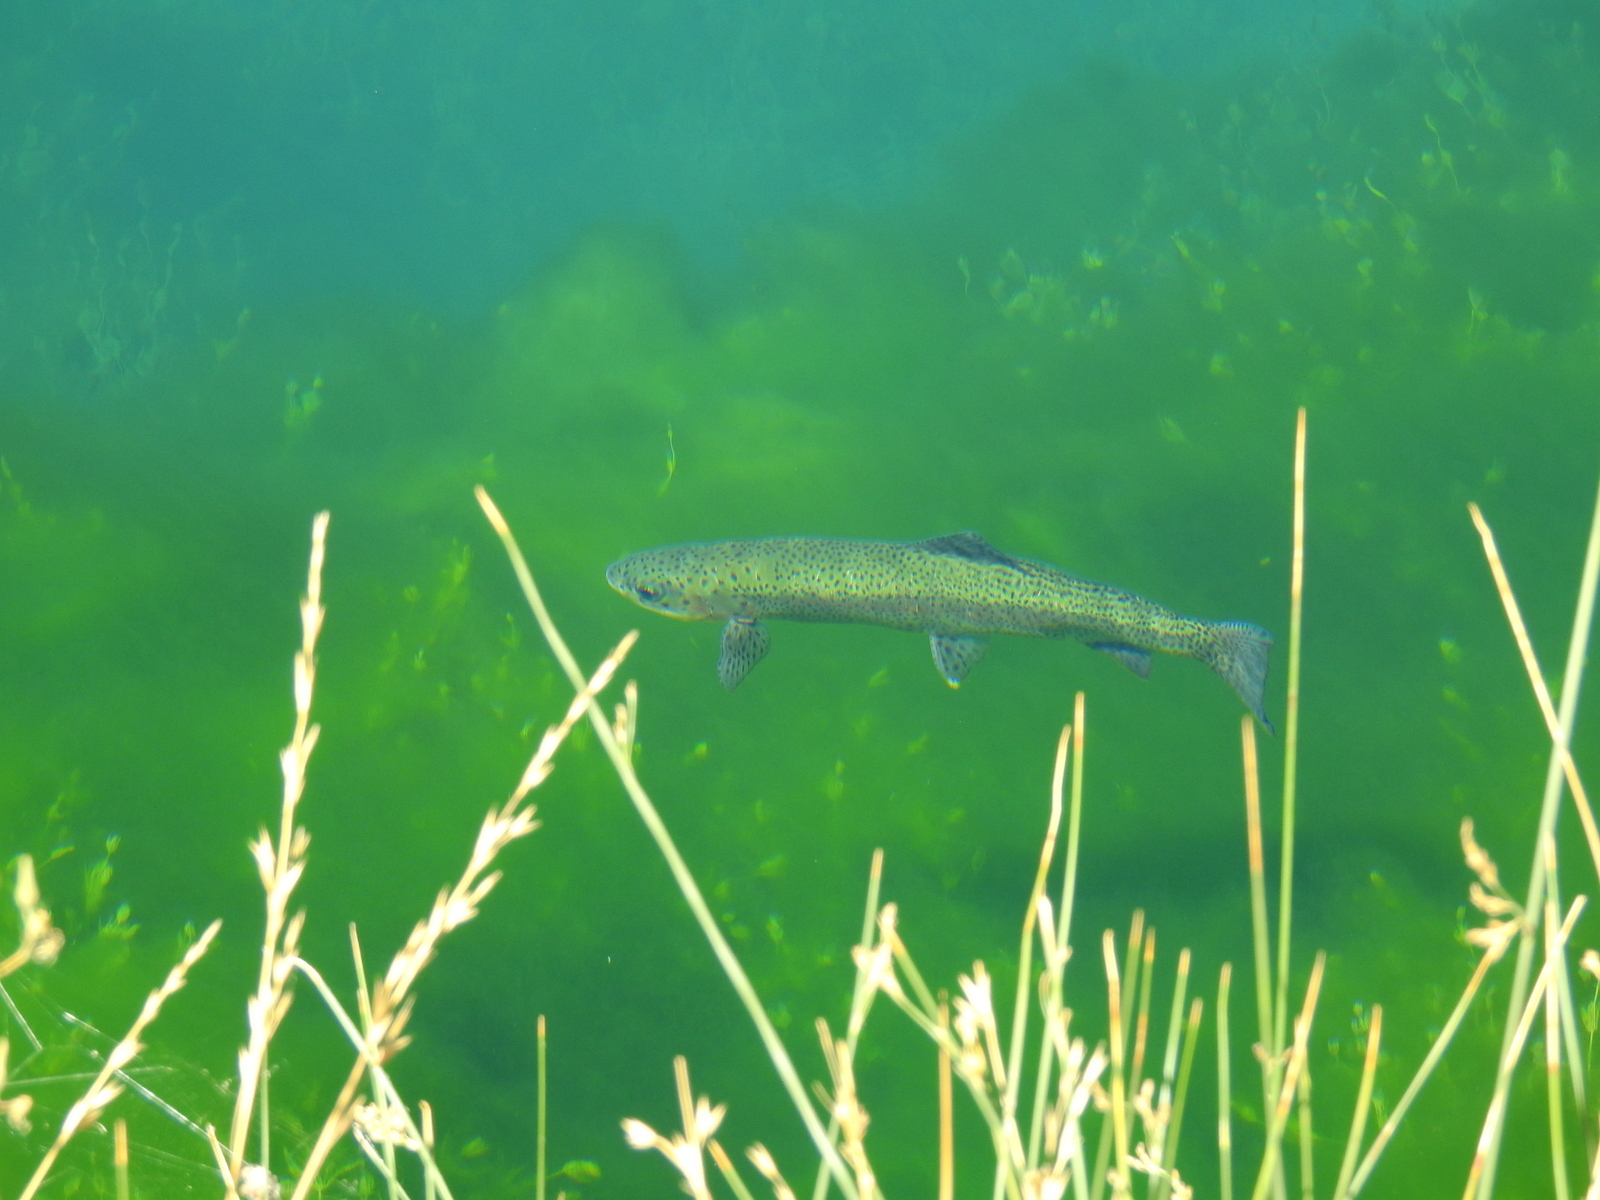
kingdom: Animalia
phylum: Chordata
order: Salmoniformes
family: Salmonidae
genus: Oncorhynchus
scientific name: Oncorhynchus mykiss
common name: Rainbow trout
